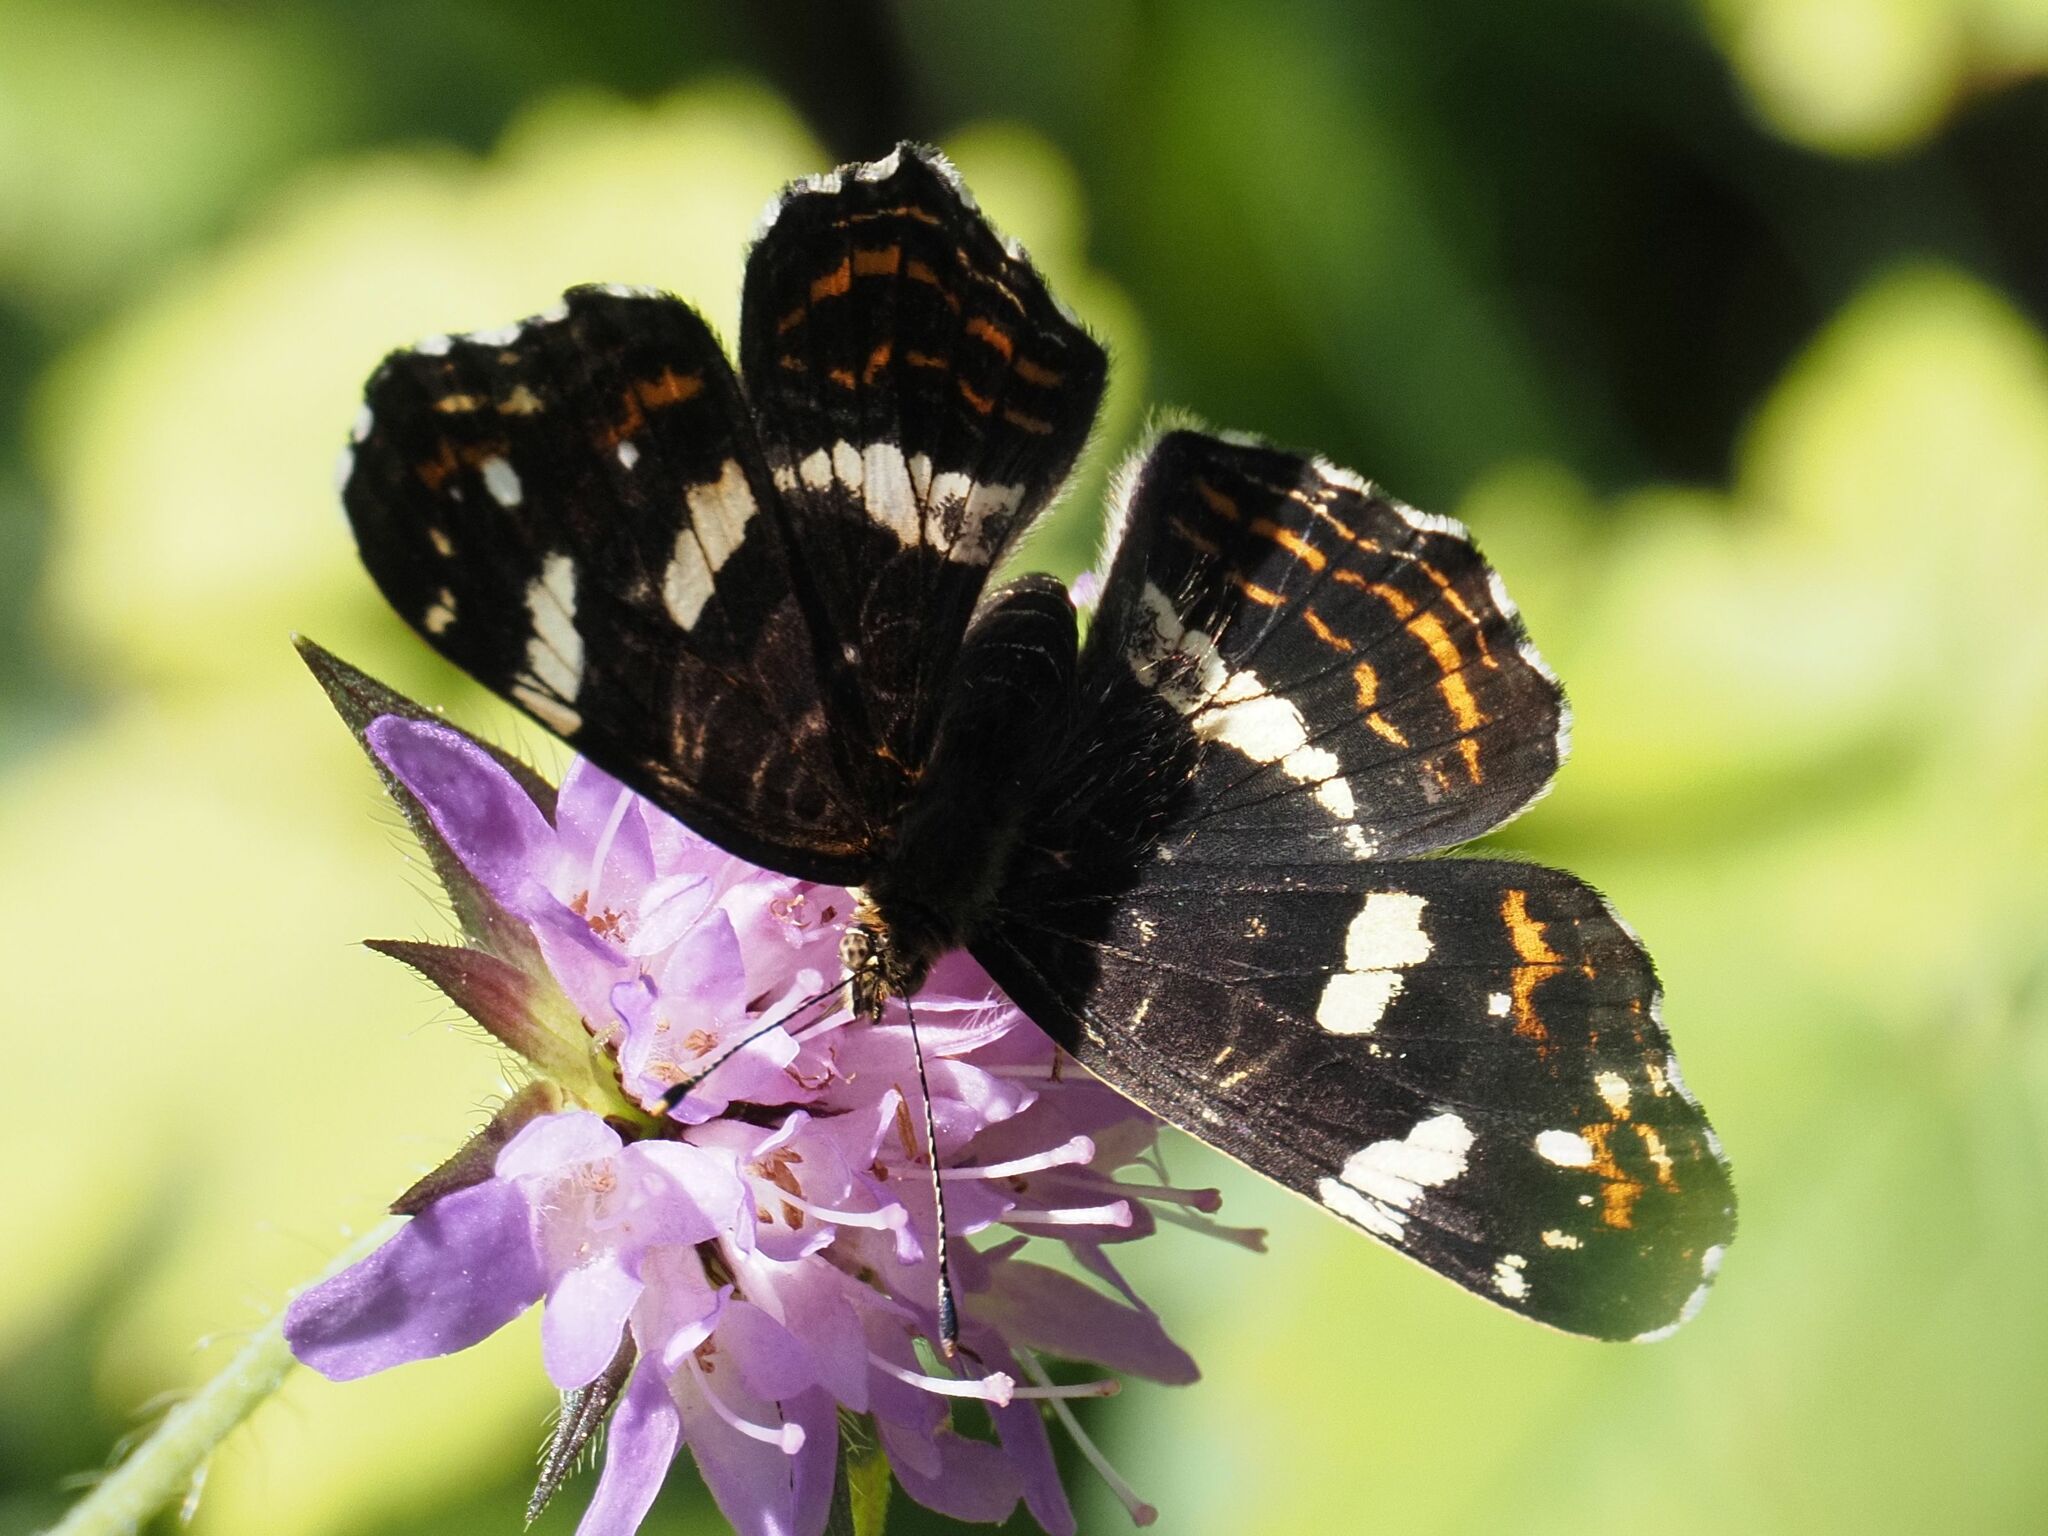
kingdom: Animalia
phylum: Arthropoda
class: Insecta
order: Lepidoptera
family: Nymphalidae
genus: Araschnia
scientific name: Araschnia levana
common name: Map butterfly
